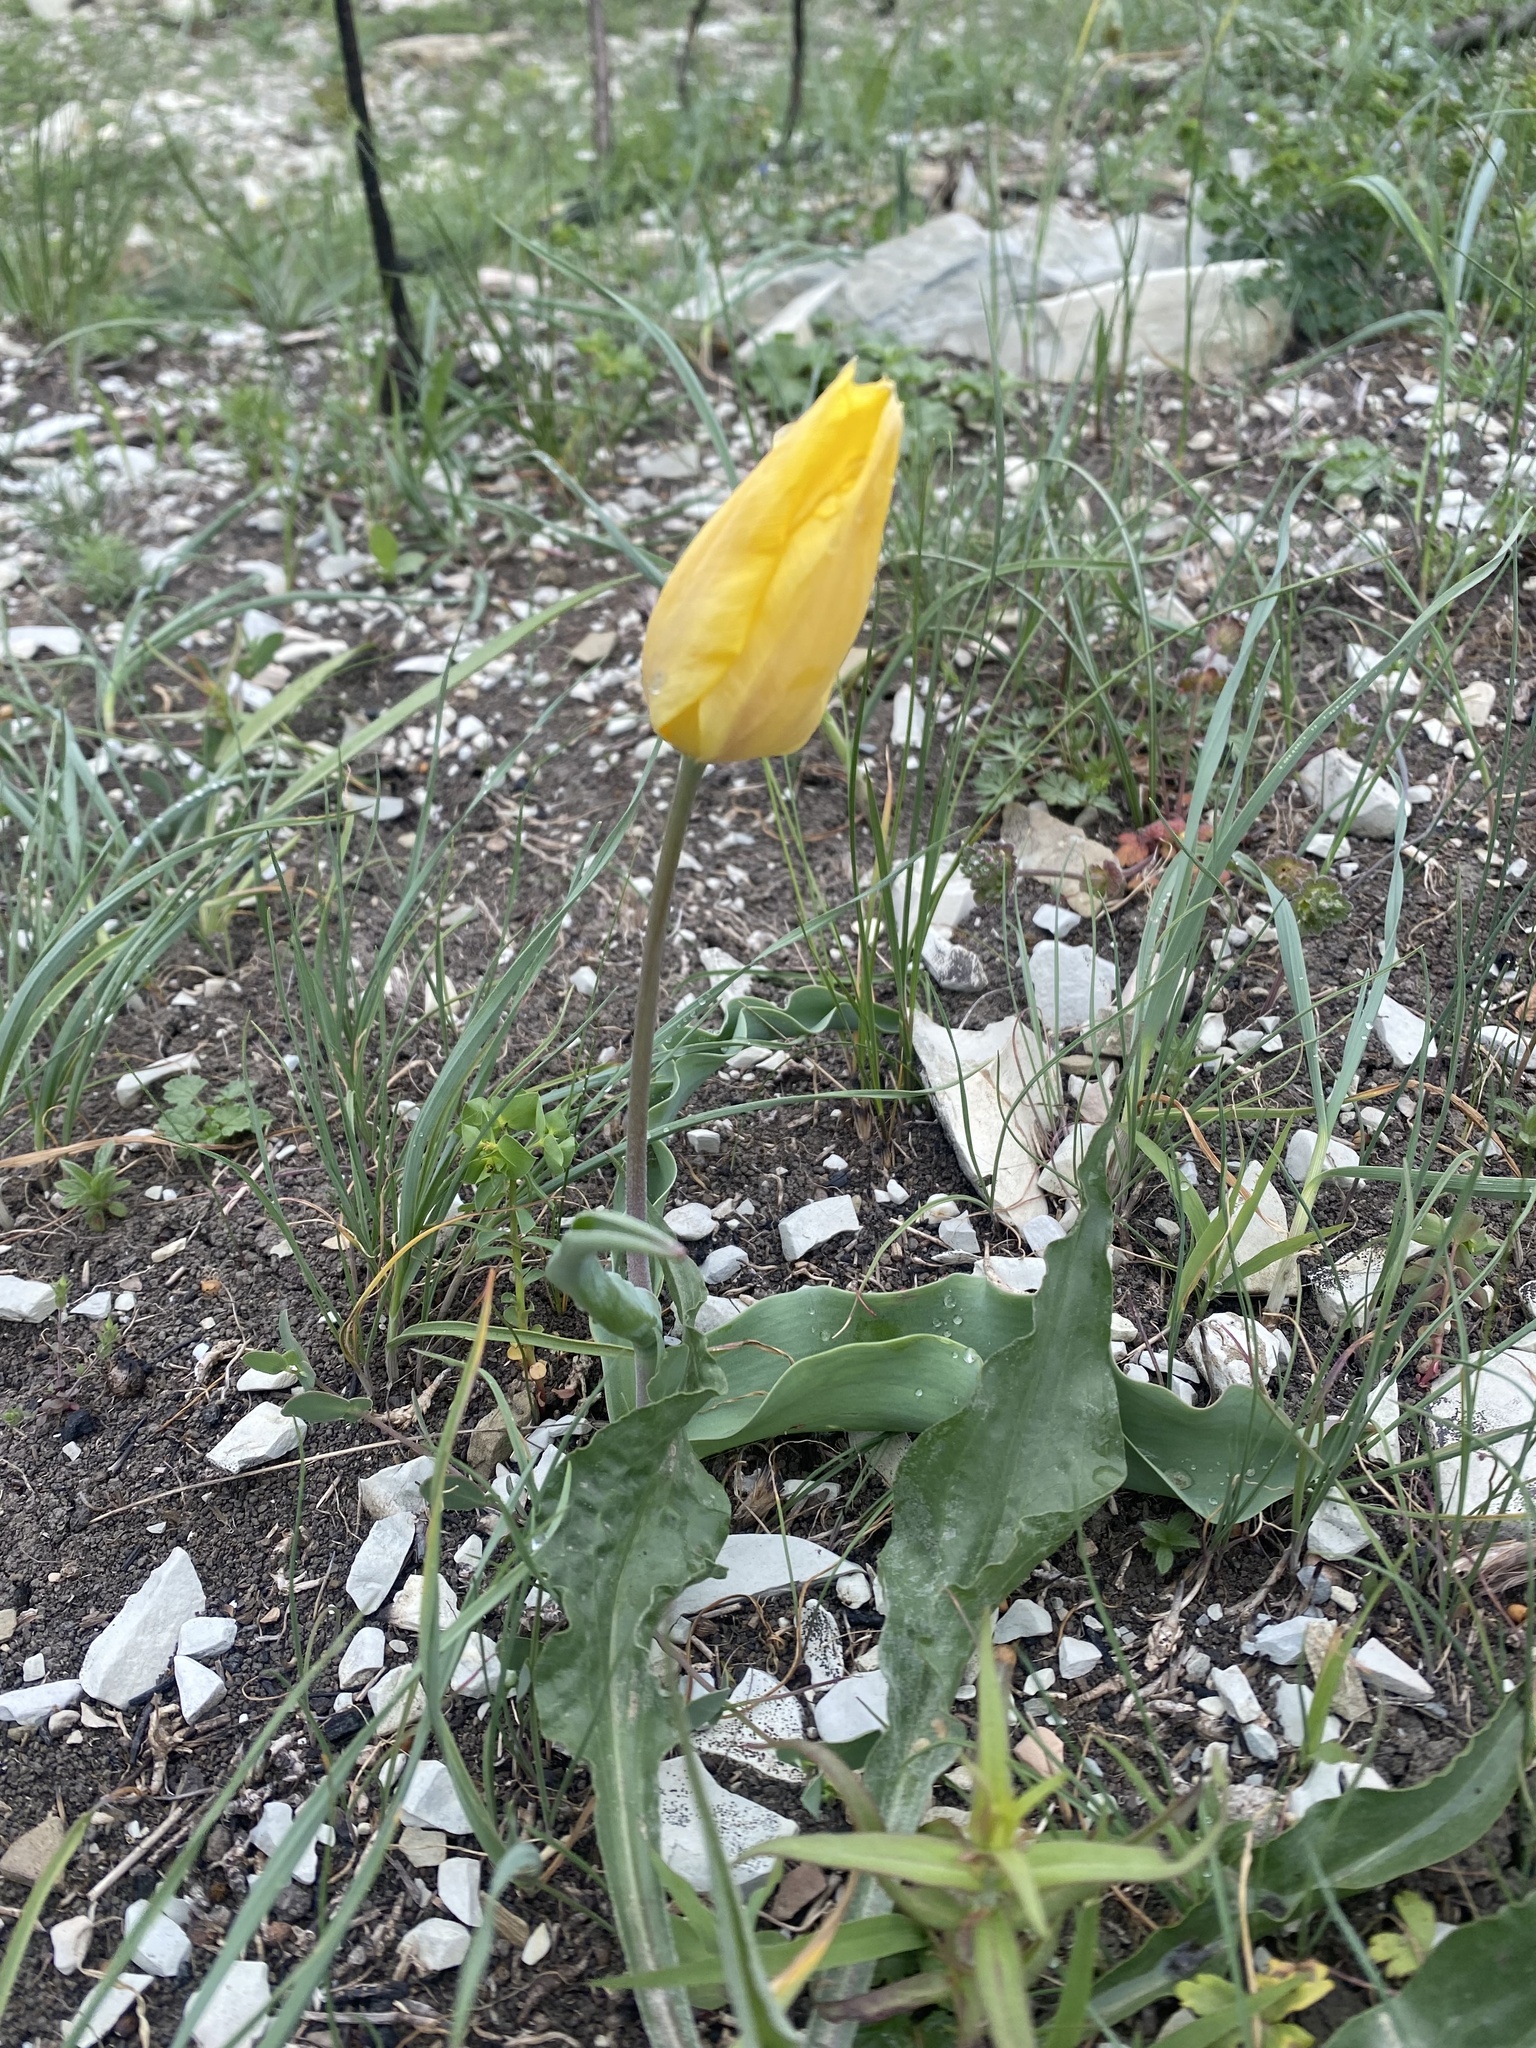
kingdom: Plantae
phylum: Tracheophyta
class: Liliopsida
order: Liliales
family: Liliaceae
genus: Tulipa
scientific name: Tulipa suaveolens
